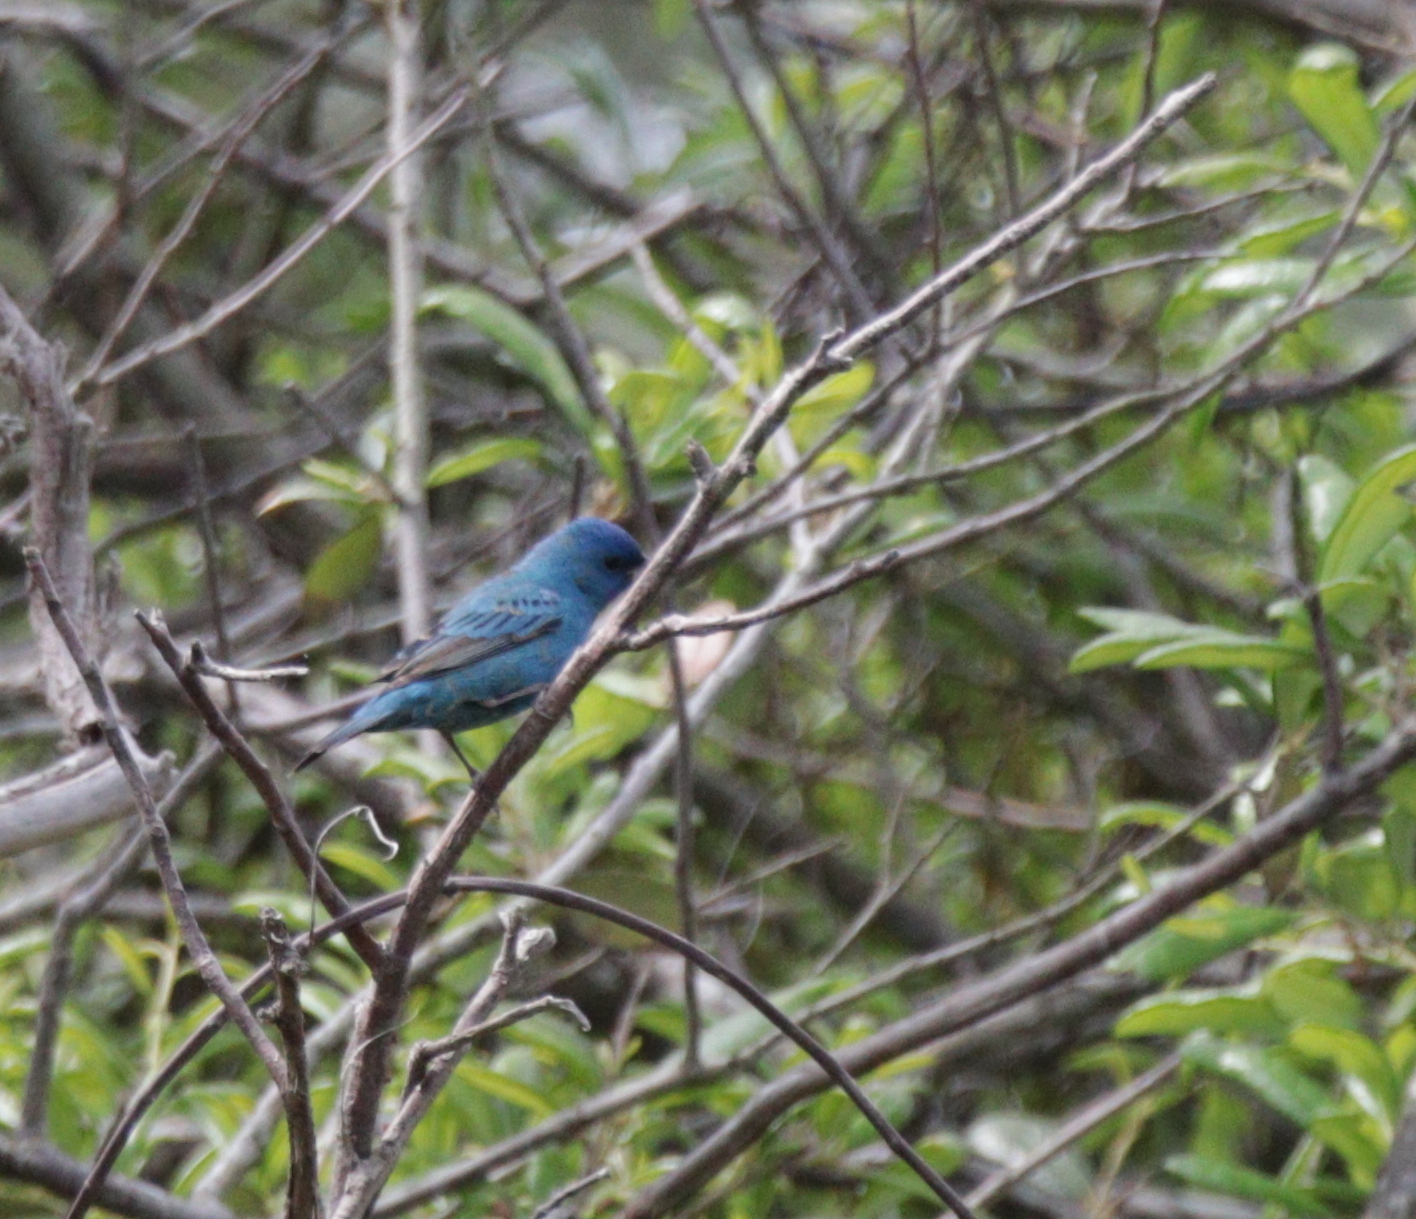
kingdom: Animalia
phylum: Chordata
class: Aves
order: Passeriformes
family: Cardinalidae
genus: Passerina
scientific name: Passerina cyanea
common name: Indigo bunting
